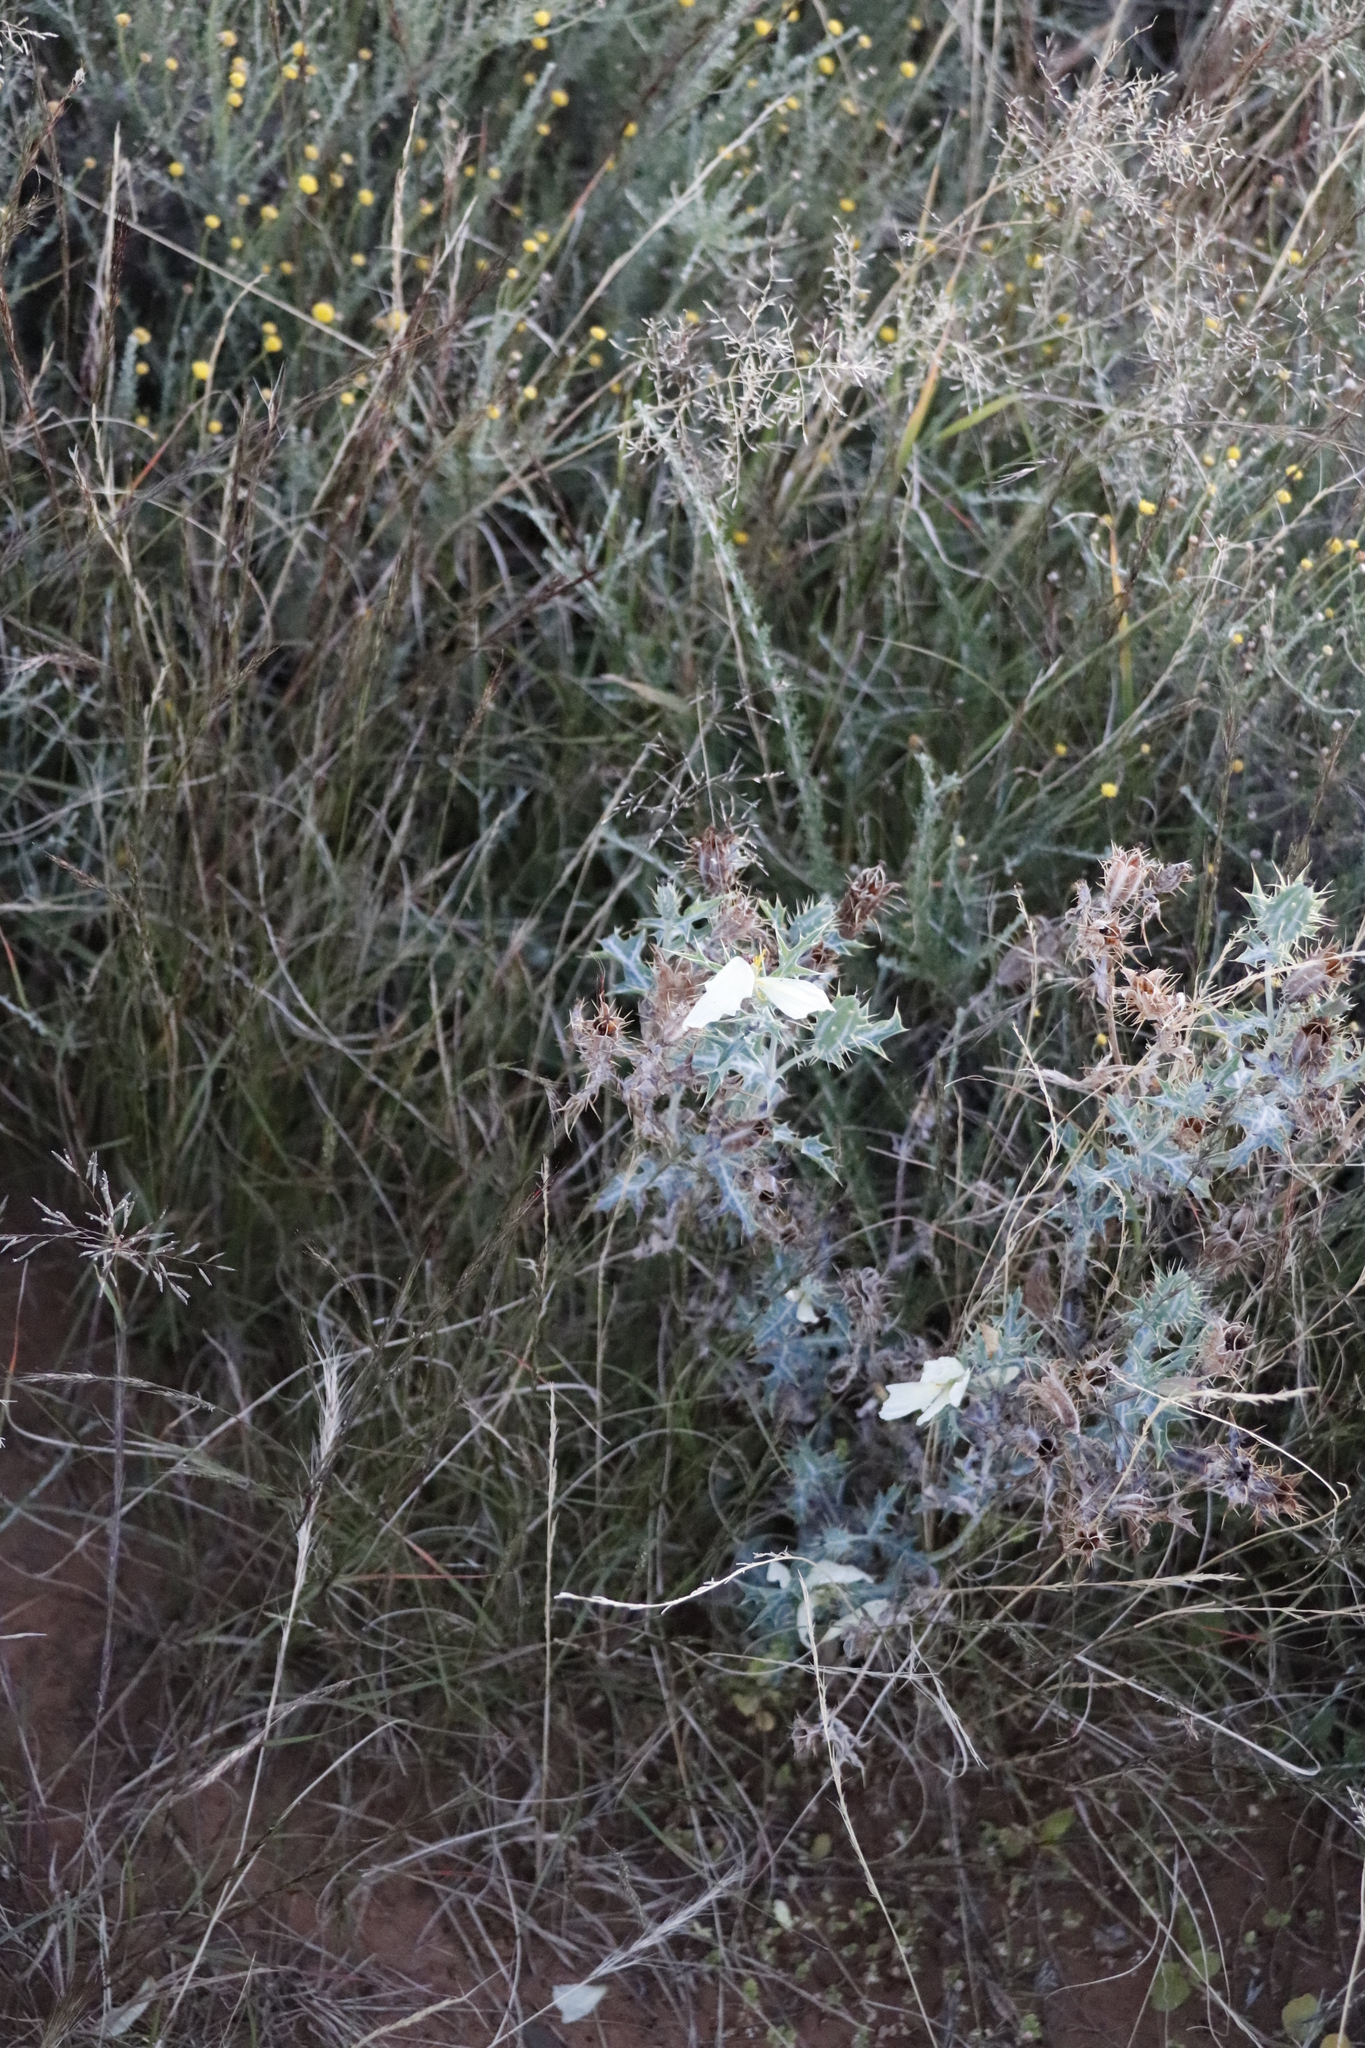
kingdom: Plantae
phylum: Tracheophyta
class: Magnoliopsida
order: Ranunculales
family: Papaveraceae
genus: Argemone
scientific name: Argemone ochroleuca
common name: White-flower mexican-poppy
